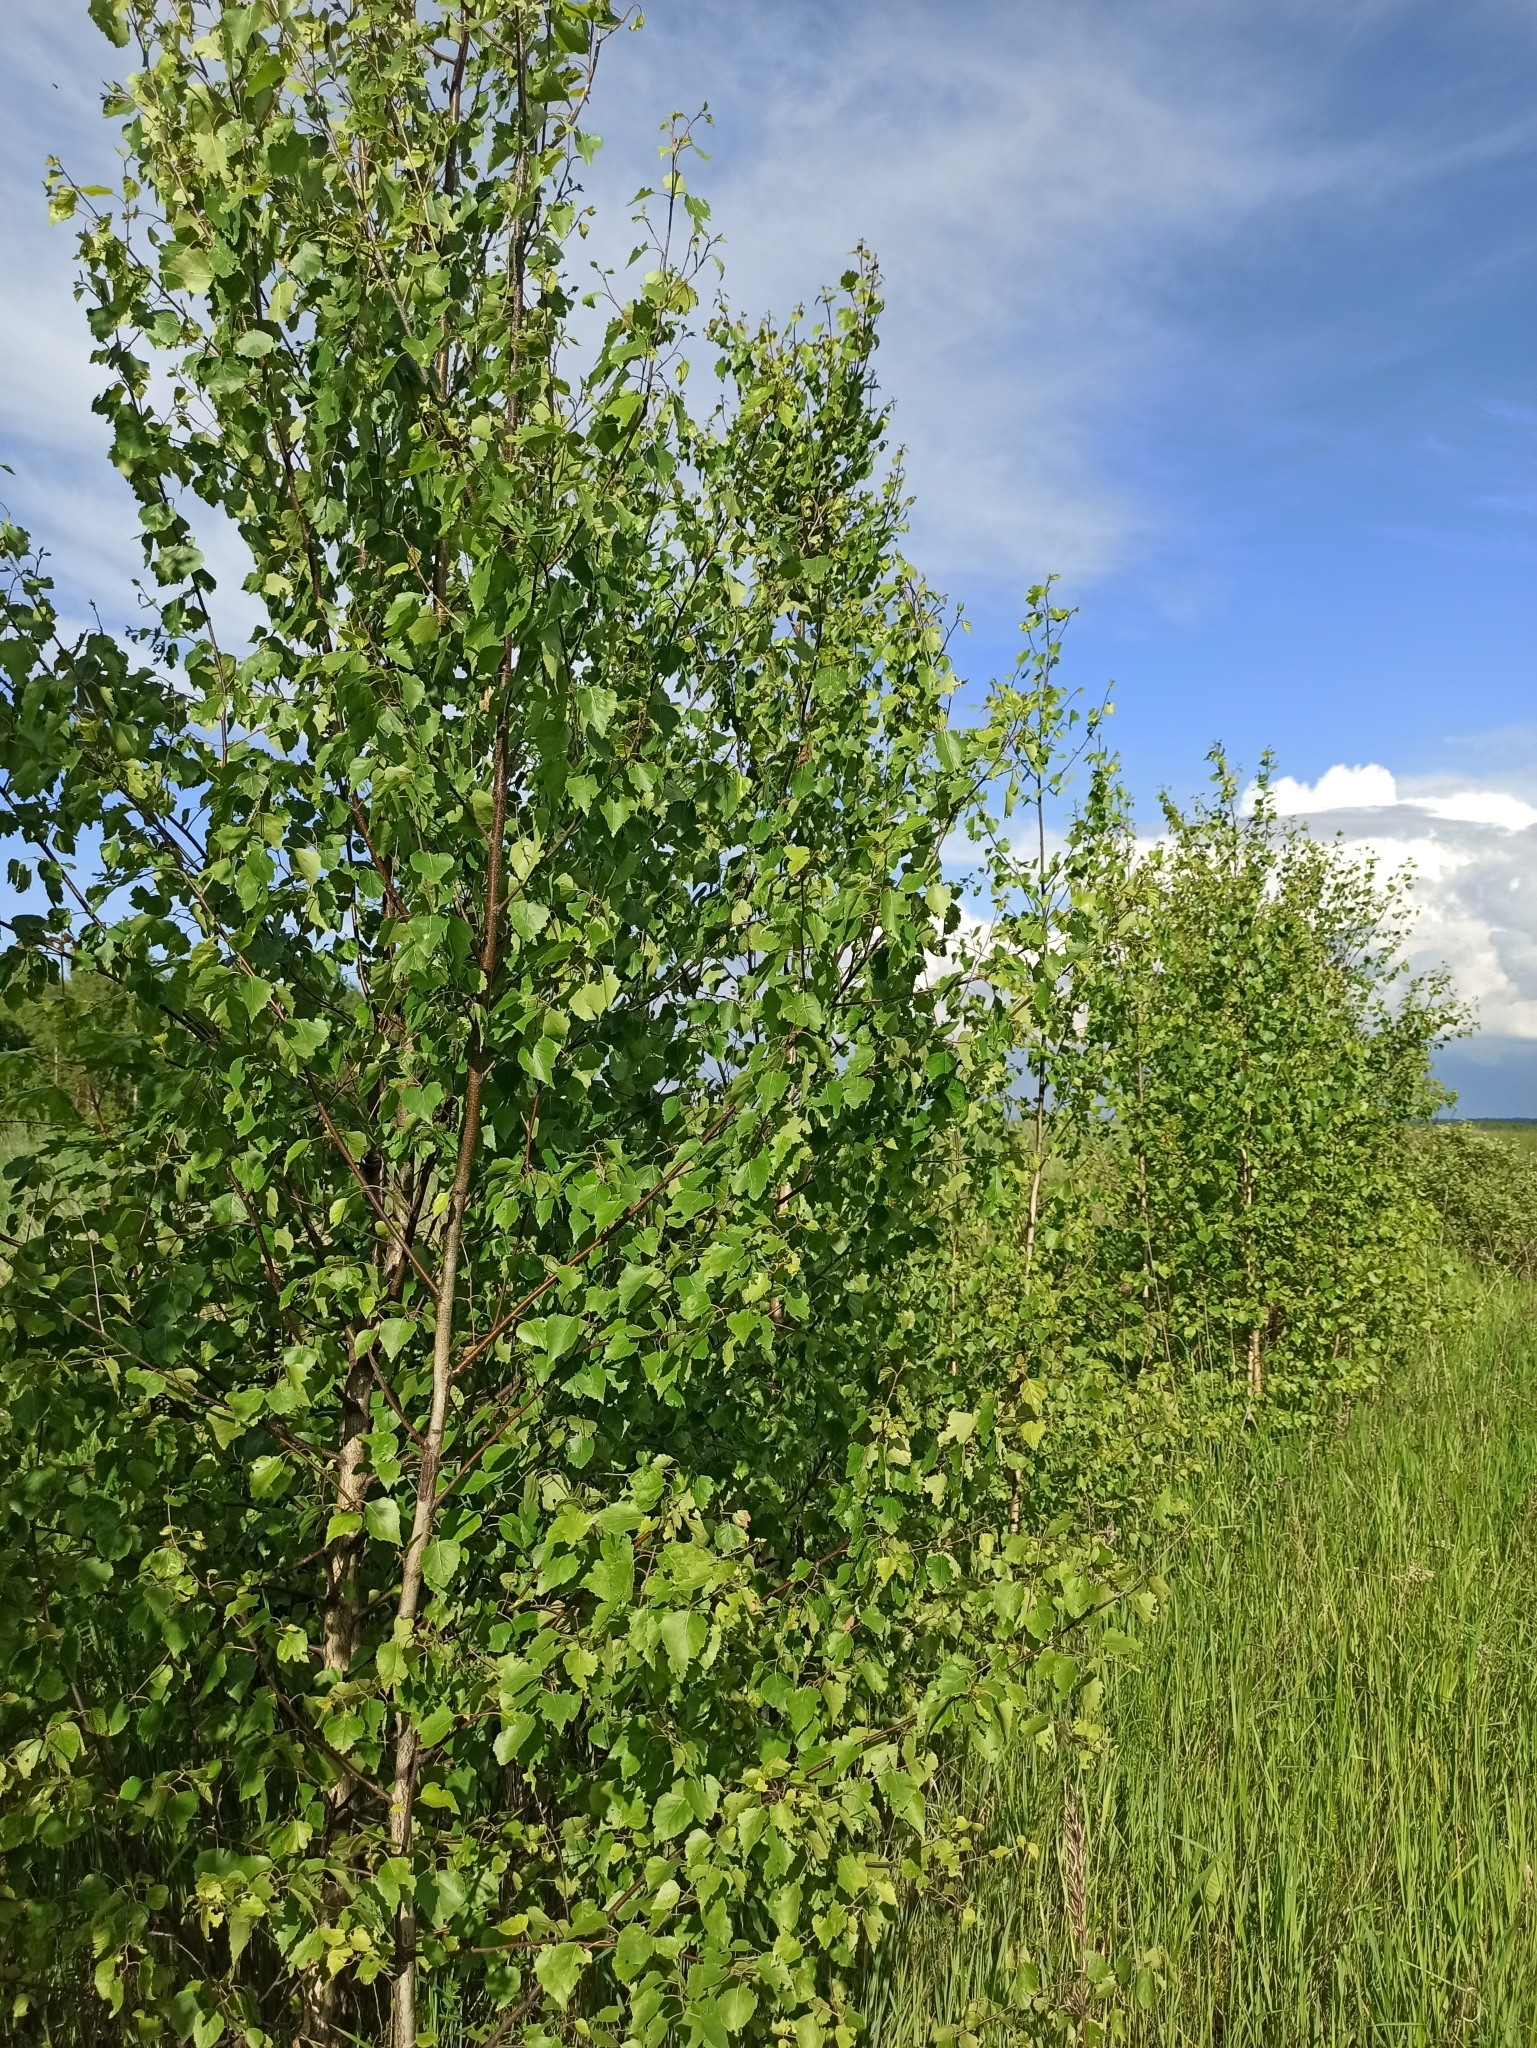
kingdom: Plantae
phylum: Tracheophyta
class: Magnoliopsida
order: Fagales
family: Betulaceae
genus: Betula
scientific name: Betula pendula
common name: Silver birch
